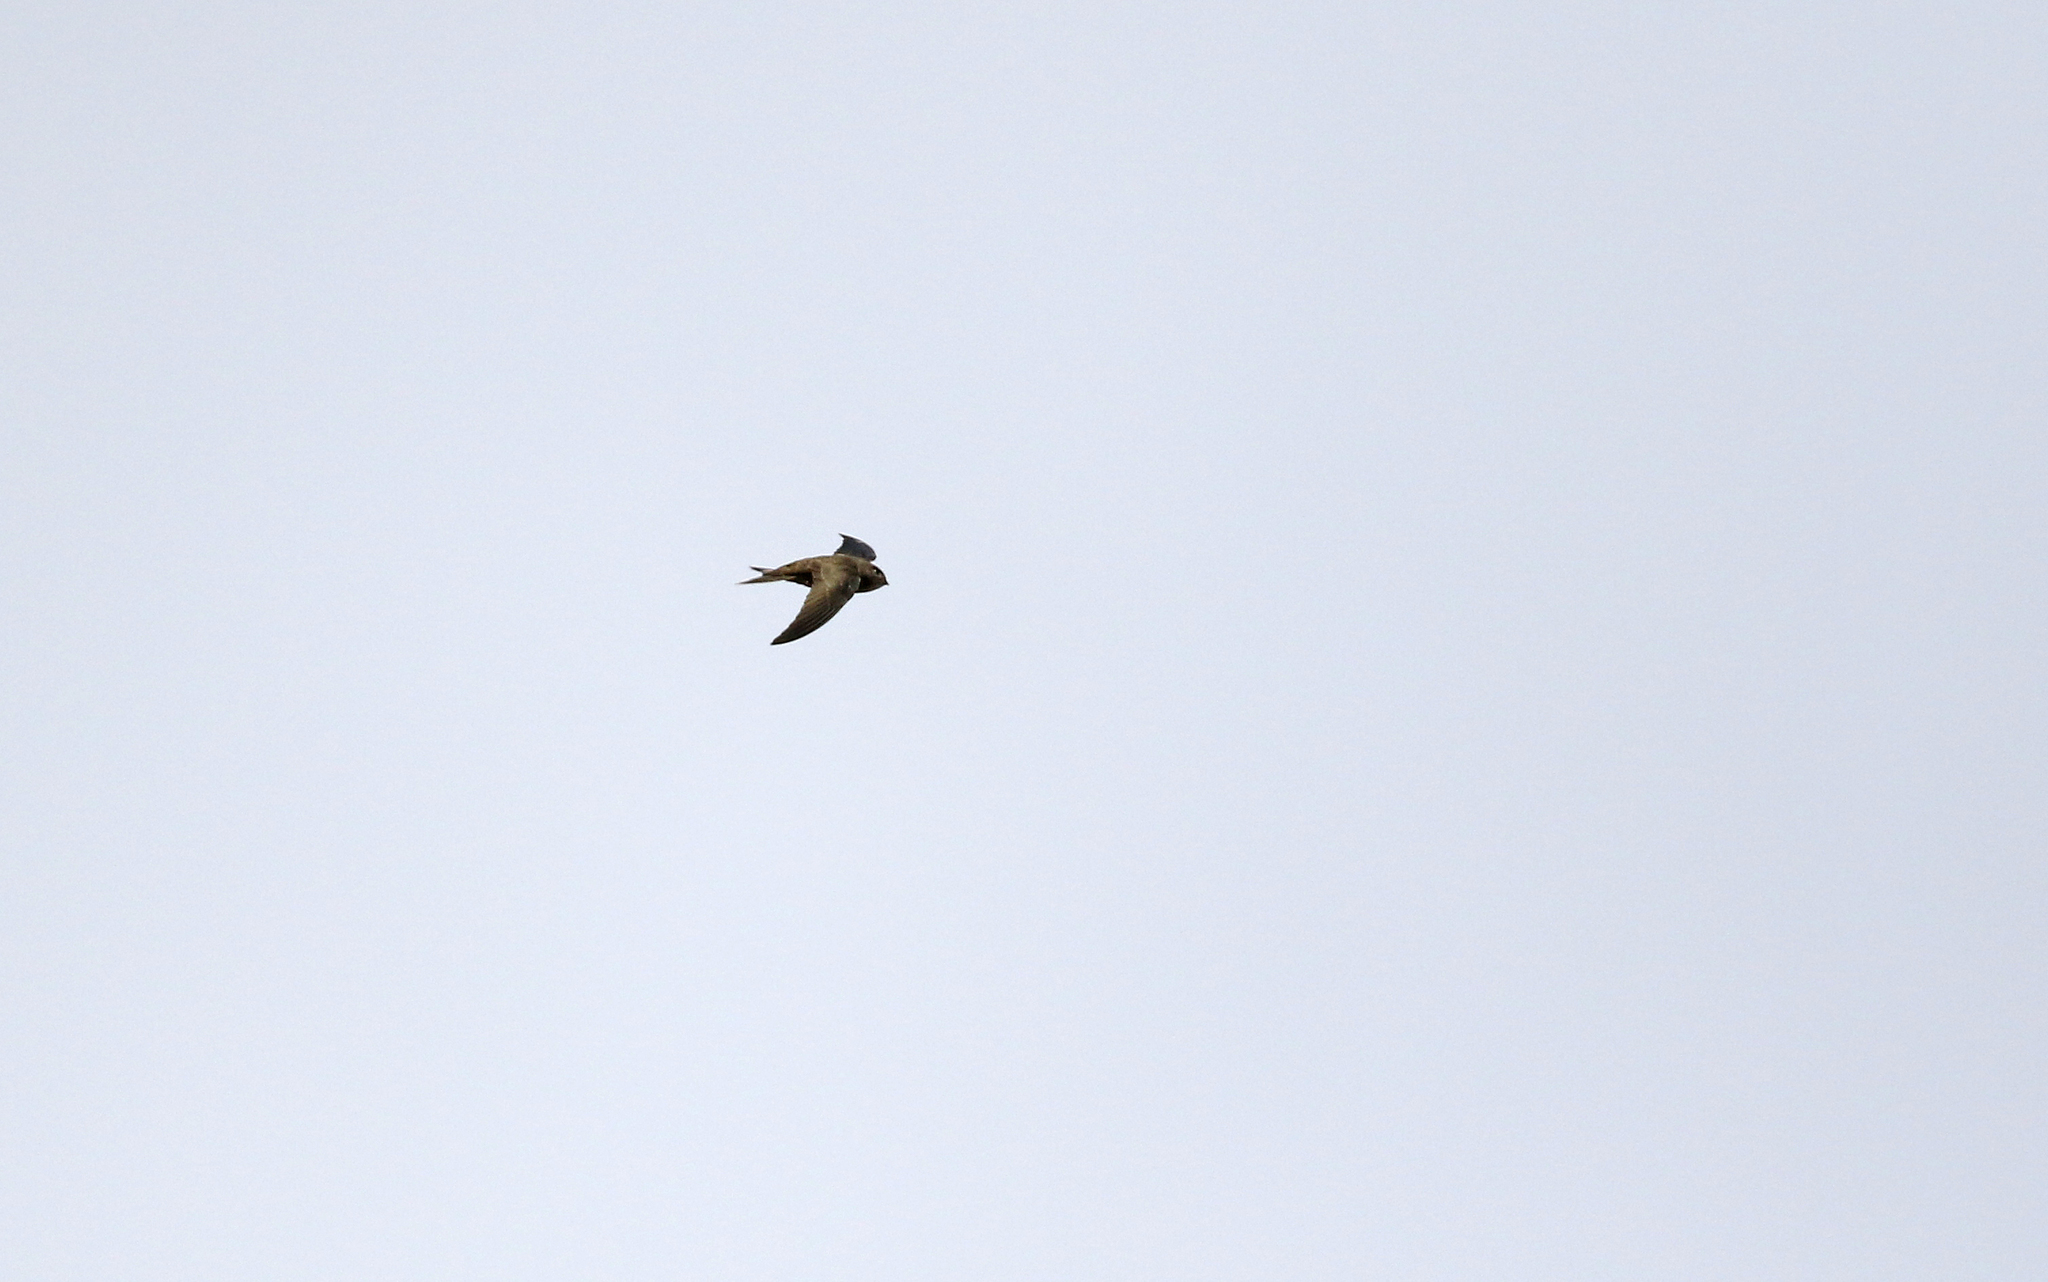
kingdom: Animalia
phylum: Chordata
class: Aves
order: Apodiformes
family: Apodidae
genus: Apus
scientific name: Apus unicolor
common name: Plain swift
